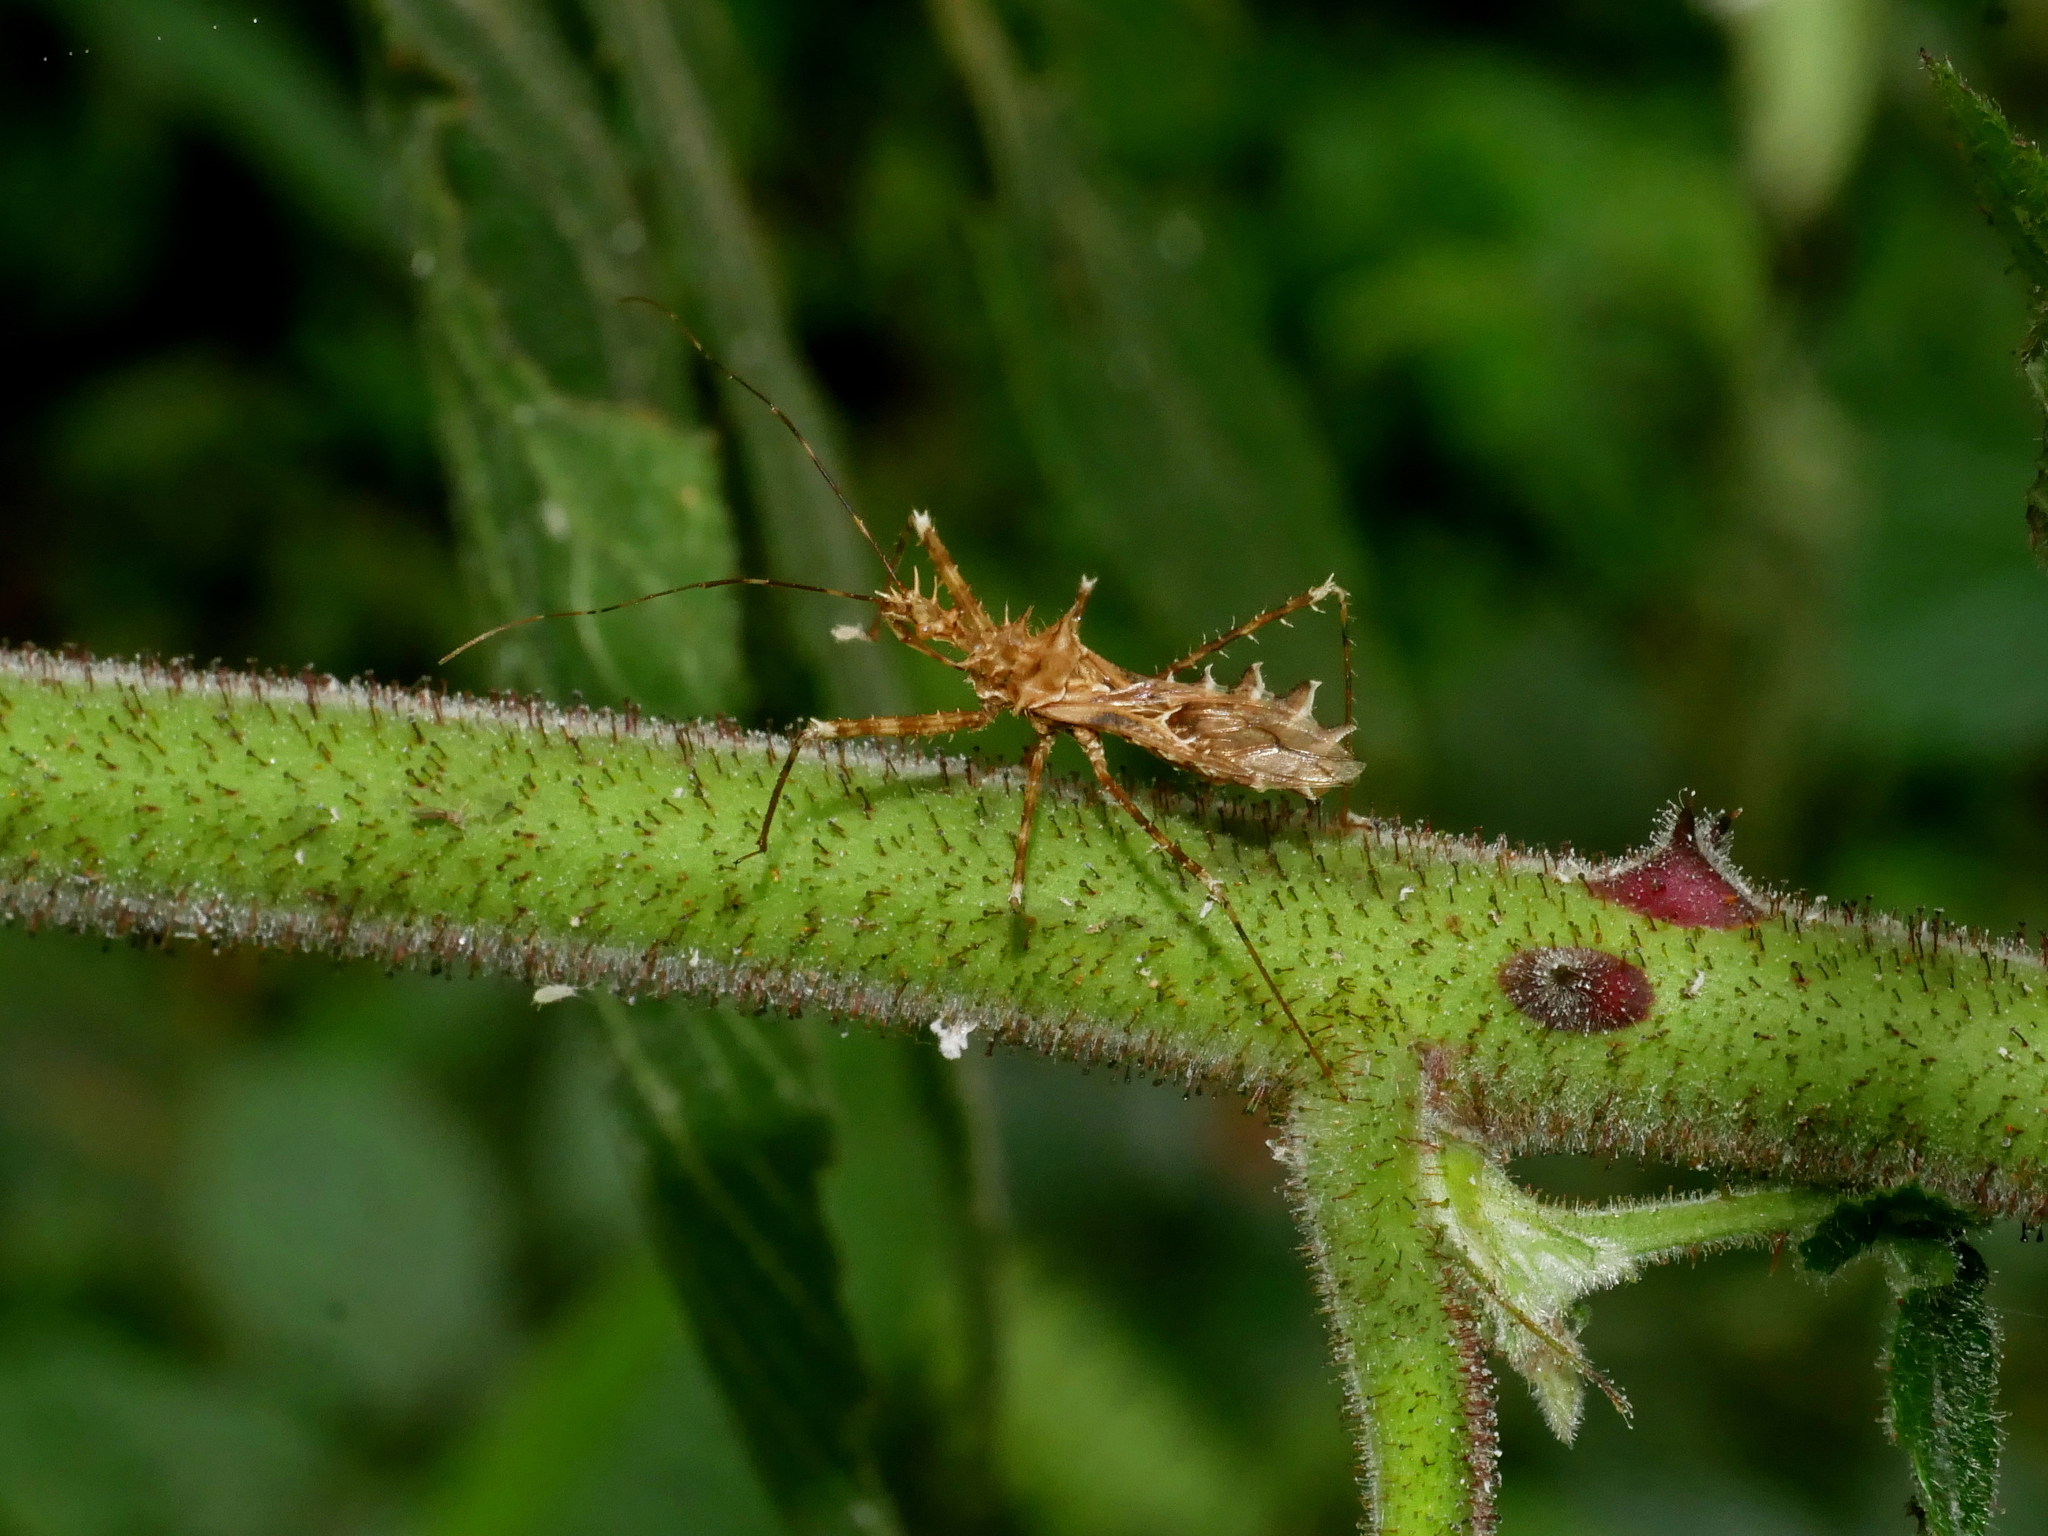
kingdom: Animalia
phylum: Arthropoda
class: Insecta
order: Hemiptera
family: Reduviidae
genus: Sclomina
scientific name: Sclomina erinacea
